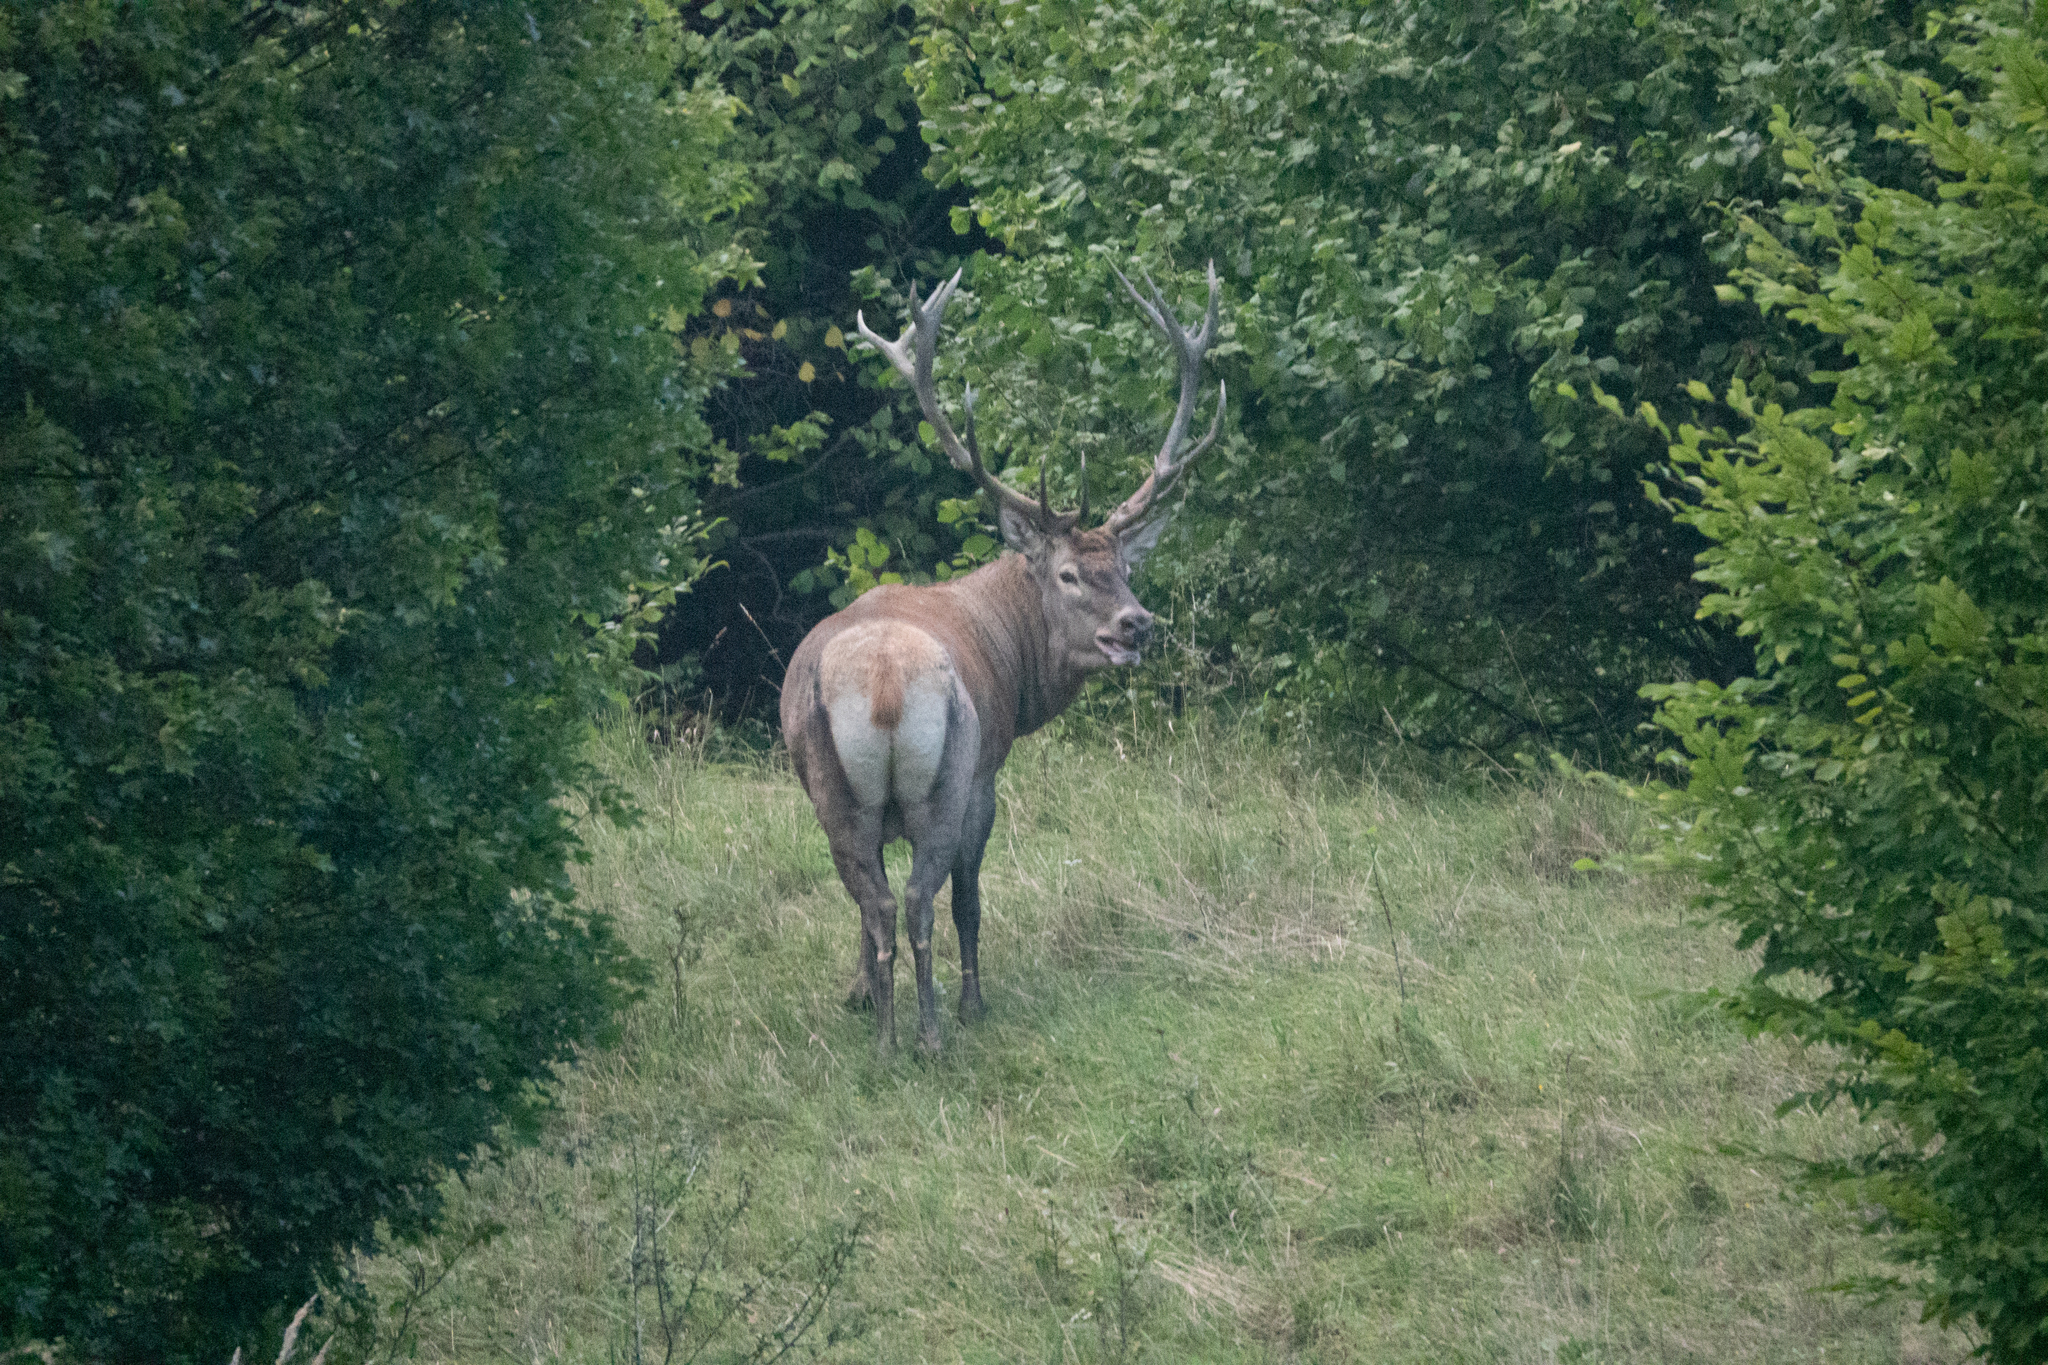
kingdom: Animalia
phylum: Chordata
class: Mammalia
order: Artiodactyla
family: Cervidae
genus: Cervus
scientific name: Cervus elaphus
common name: Red deer
